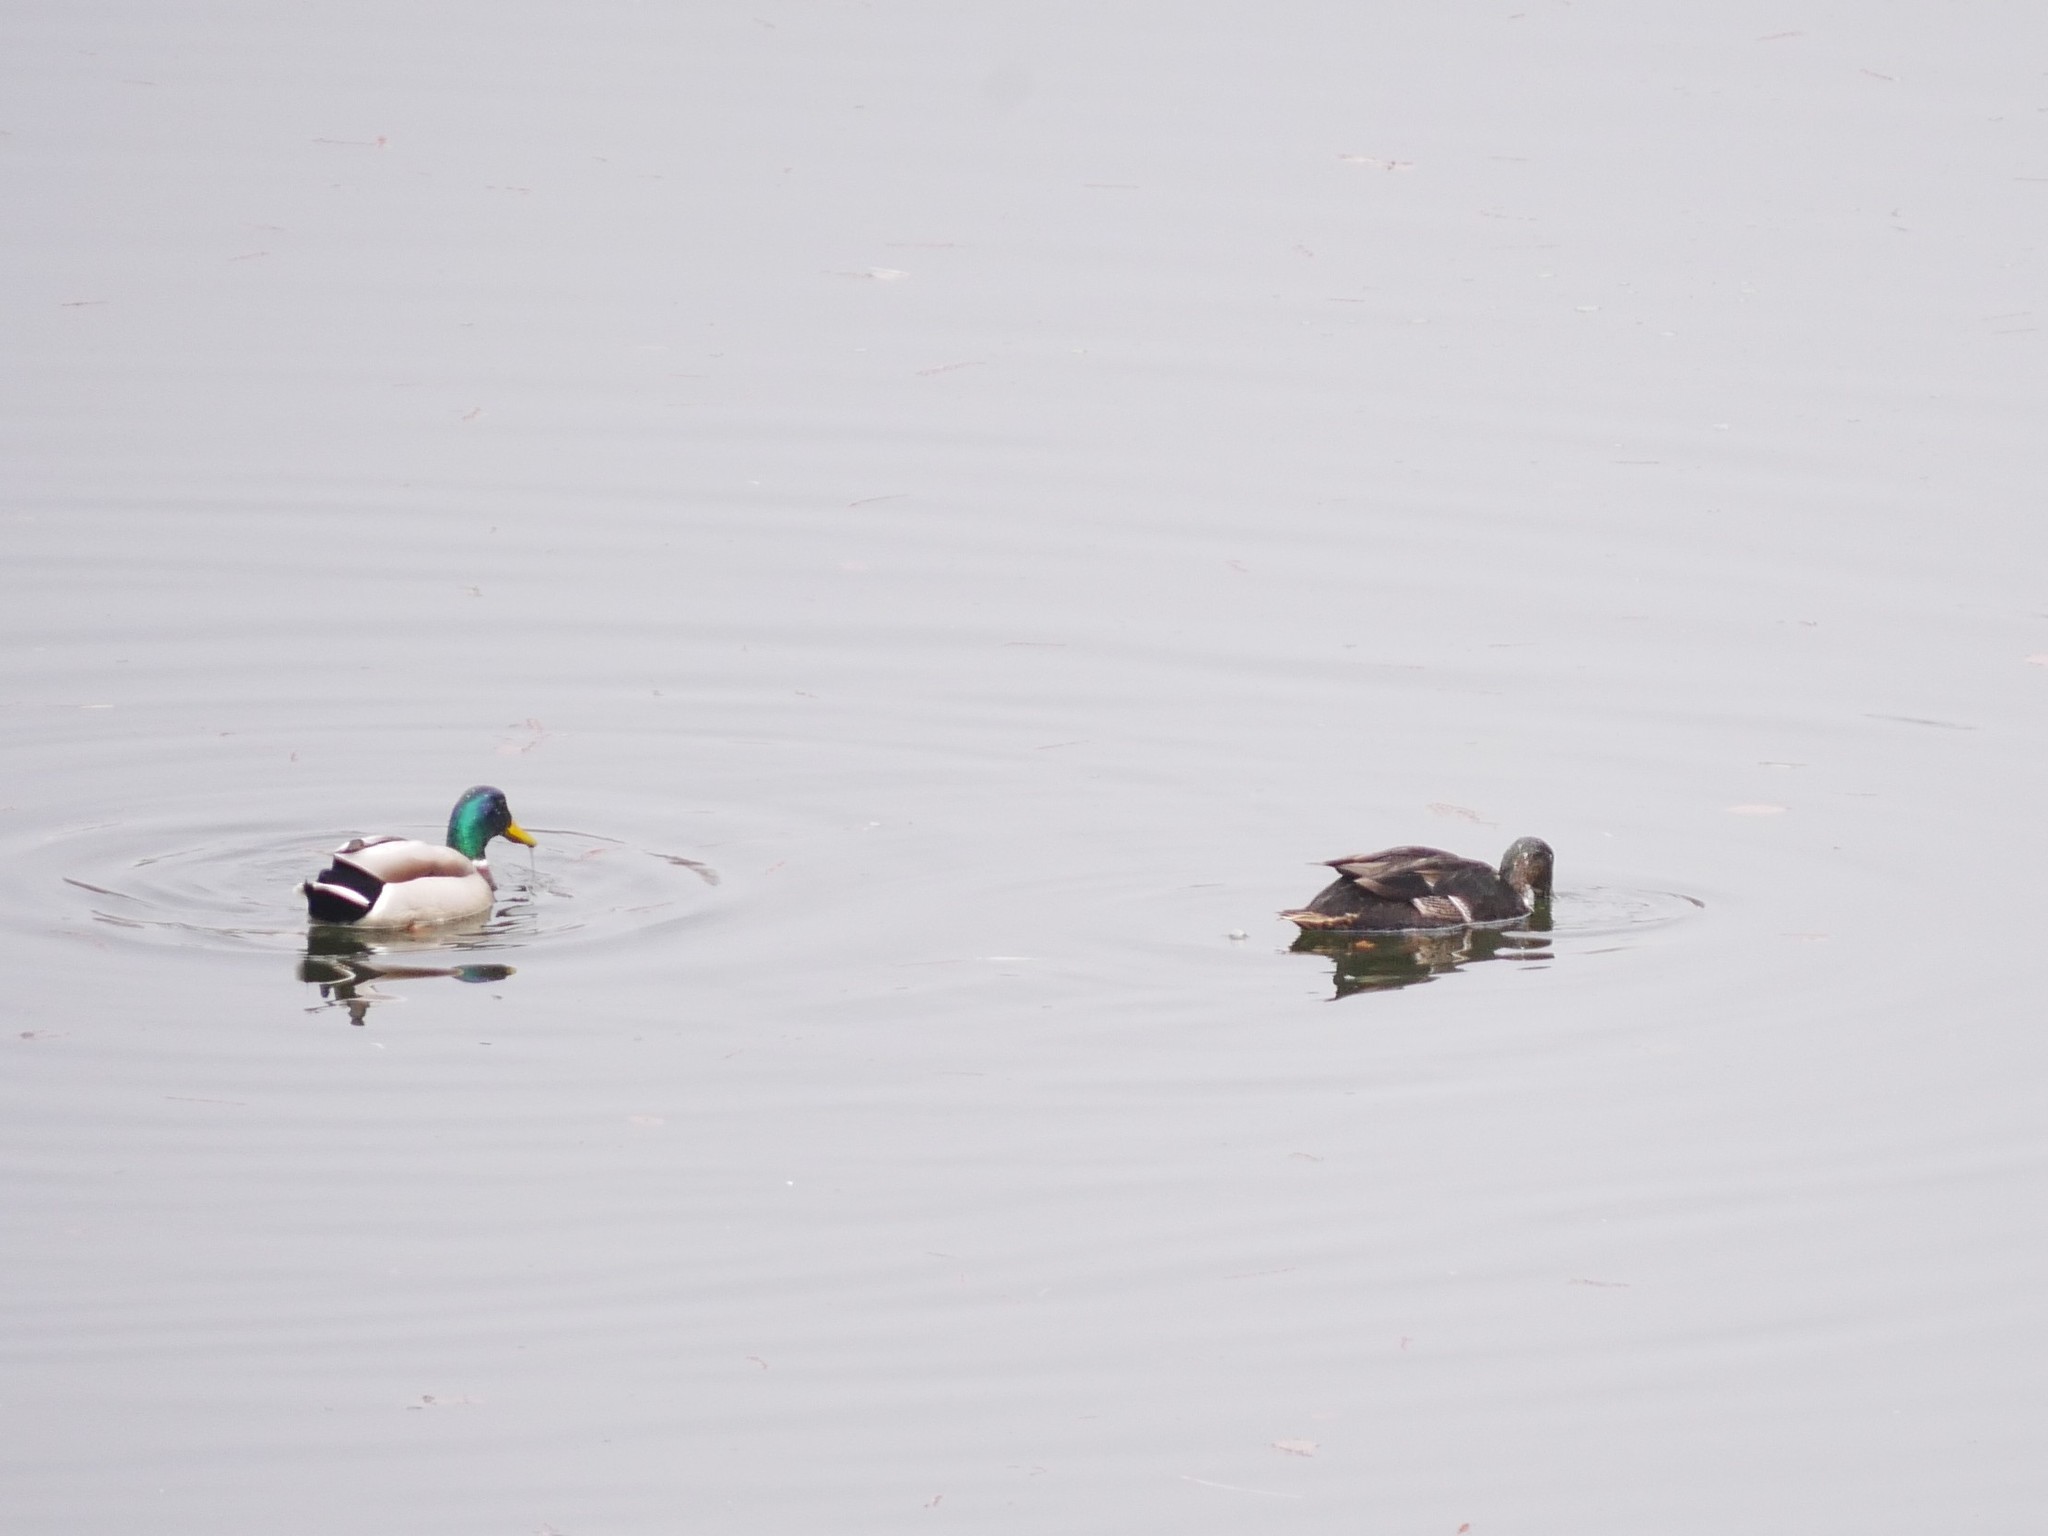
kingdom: Animalia
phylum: Chordata
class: Aves
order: Anseriformes
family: Anatidae
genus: Anas
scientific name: Anas platyrhynchos
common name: Mallard
